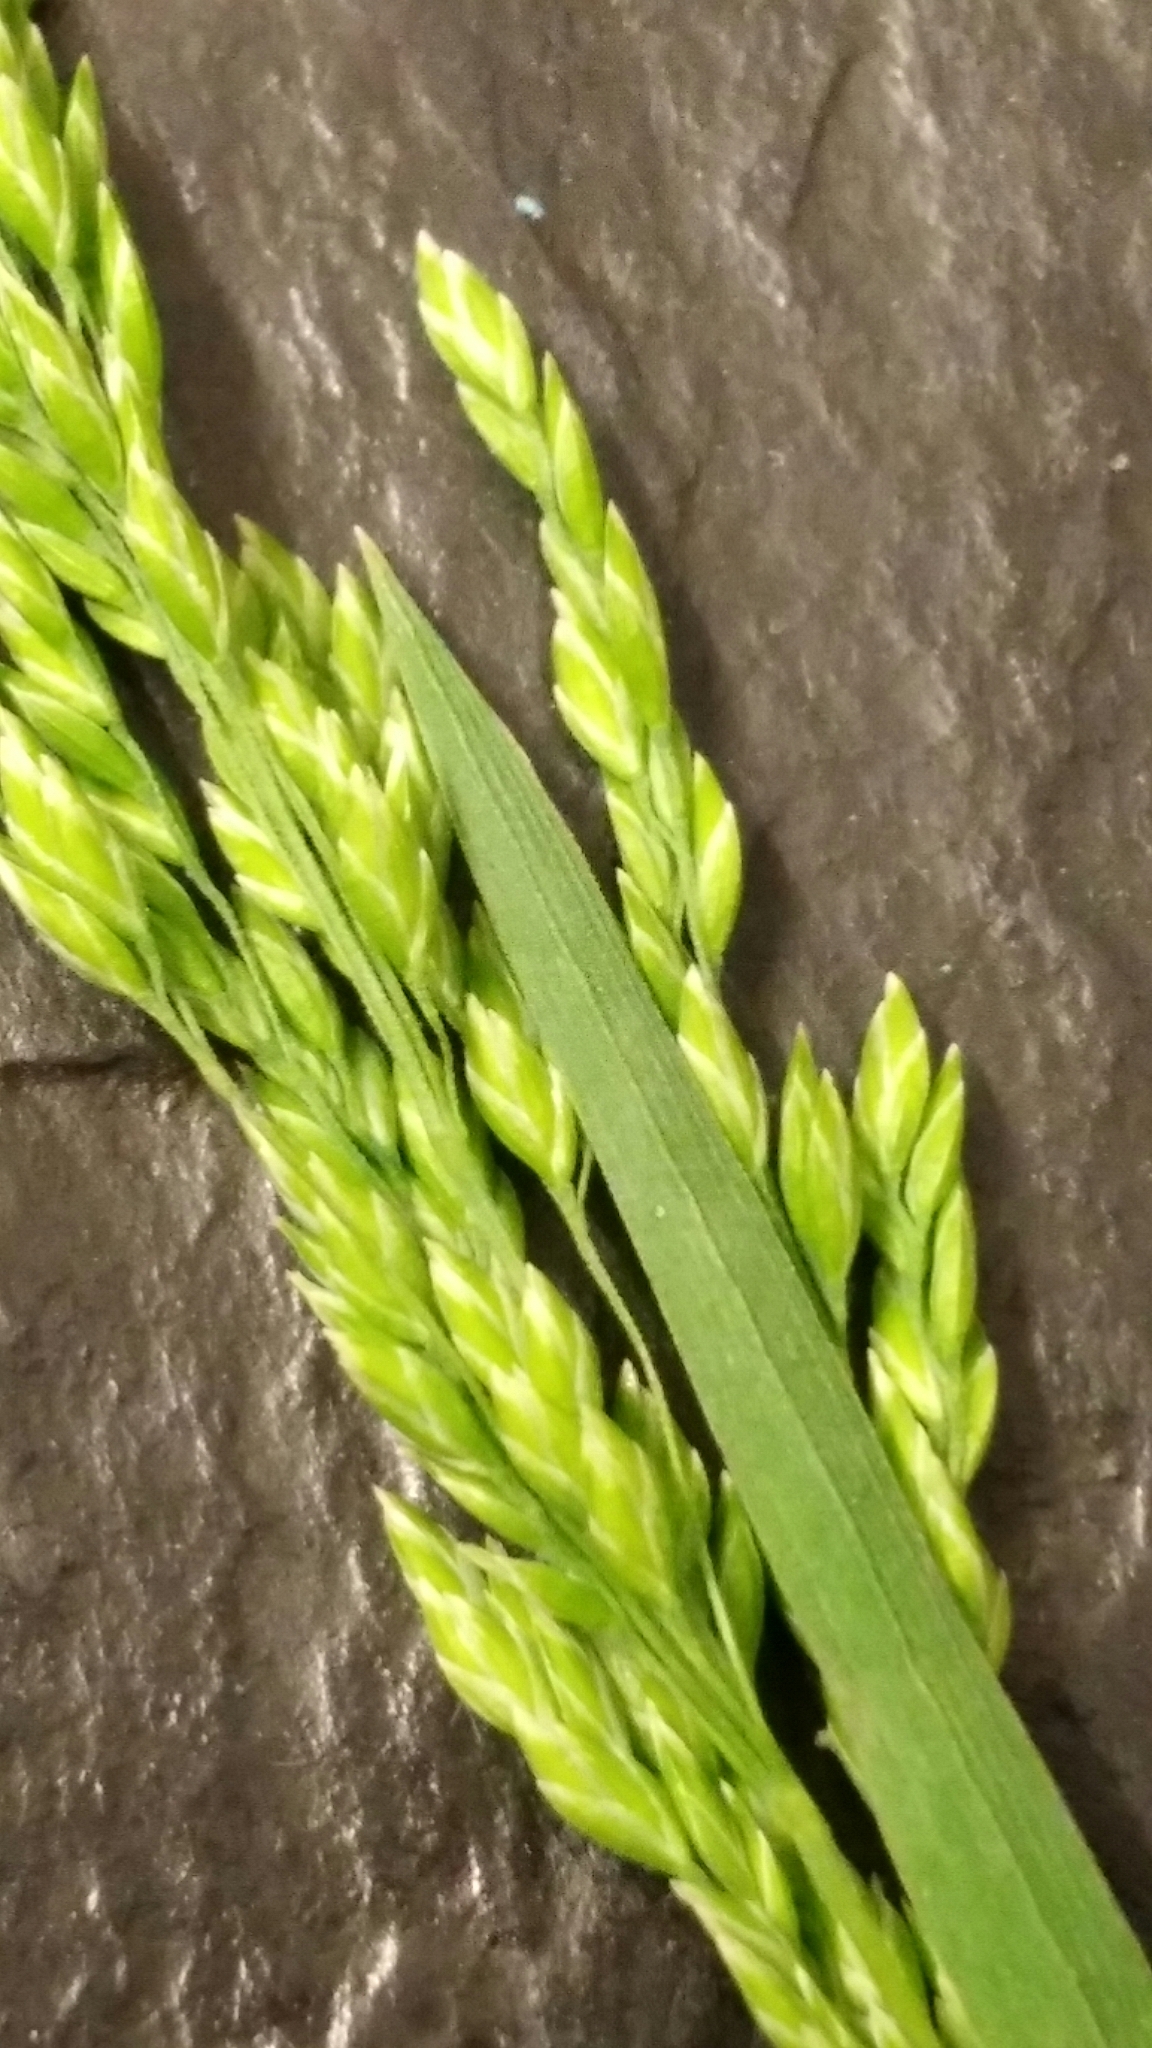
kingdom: Plantae
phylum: Tracheophyta
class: Liliopsida
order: Poales
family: Poaceae
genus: Poa
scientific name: Poa trivialis
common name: Rough bluegrass
